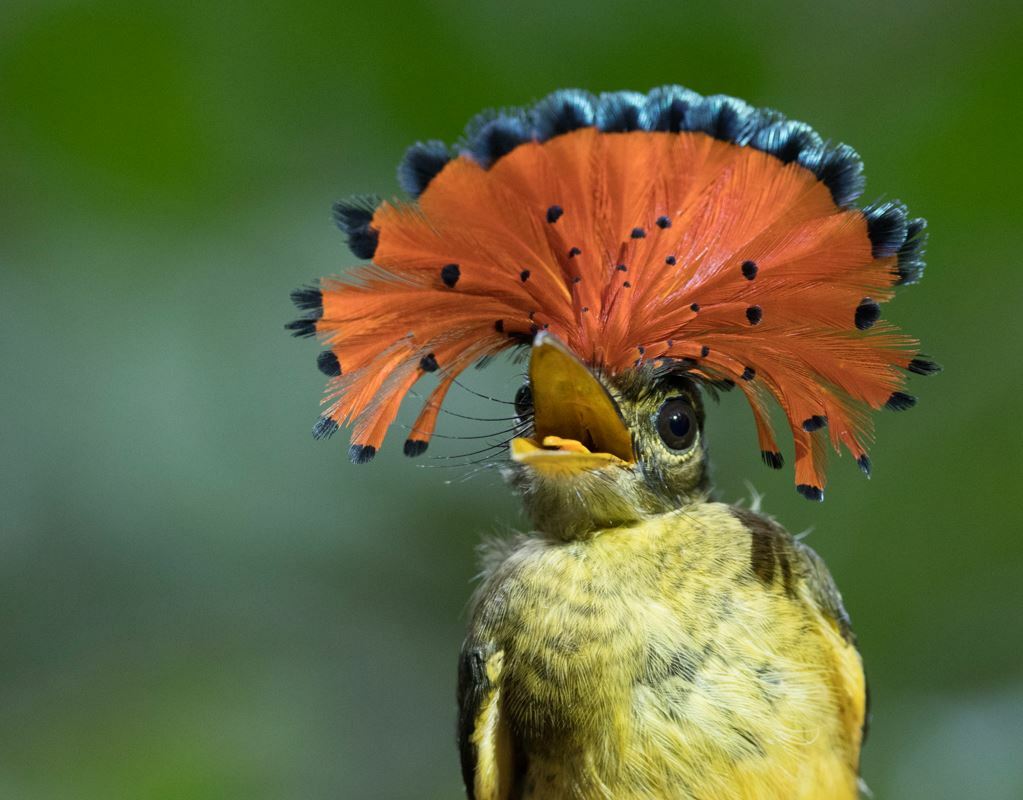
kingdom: Animalia
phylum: Chordata
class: Aves
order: Passeriformes
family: Tyrannidae
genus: Onychorhynchus
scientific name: Onychorhynchus coronatus
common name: Royal flycatcher
